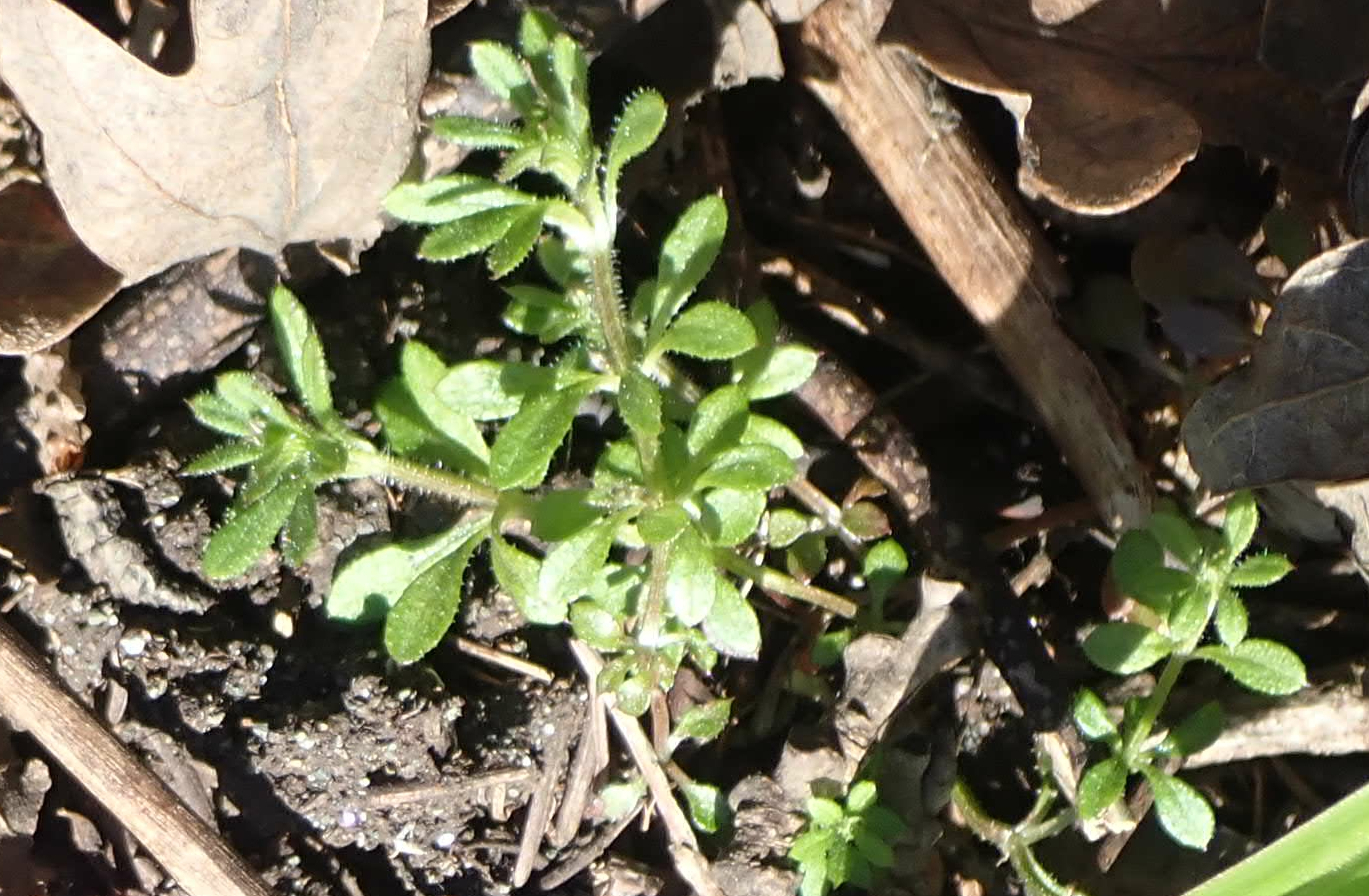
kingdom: Plantae
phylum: Tracheophyta
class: Magnoliopsida
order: Gentianales
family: Rubiaceae
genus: Galium
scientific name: Galium aparine
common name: Cleavers
